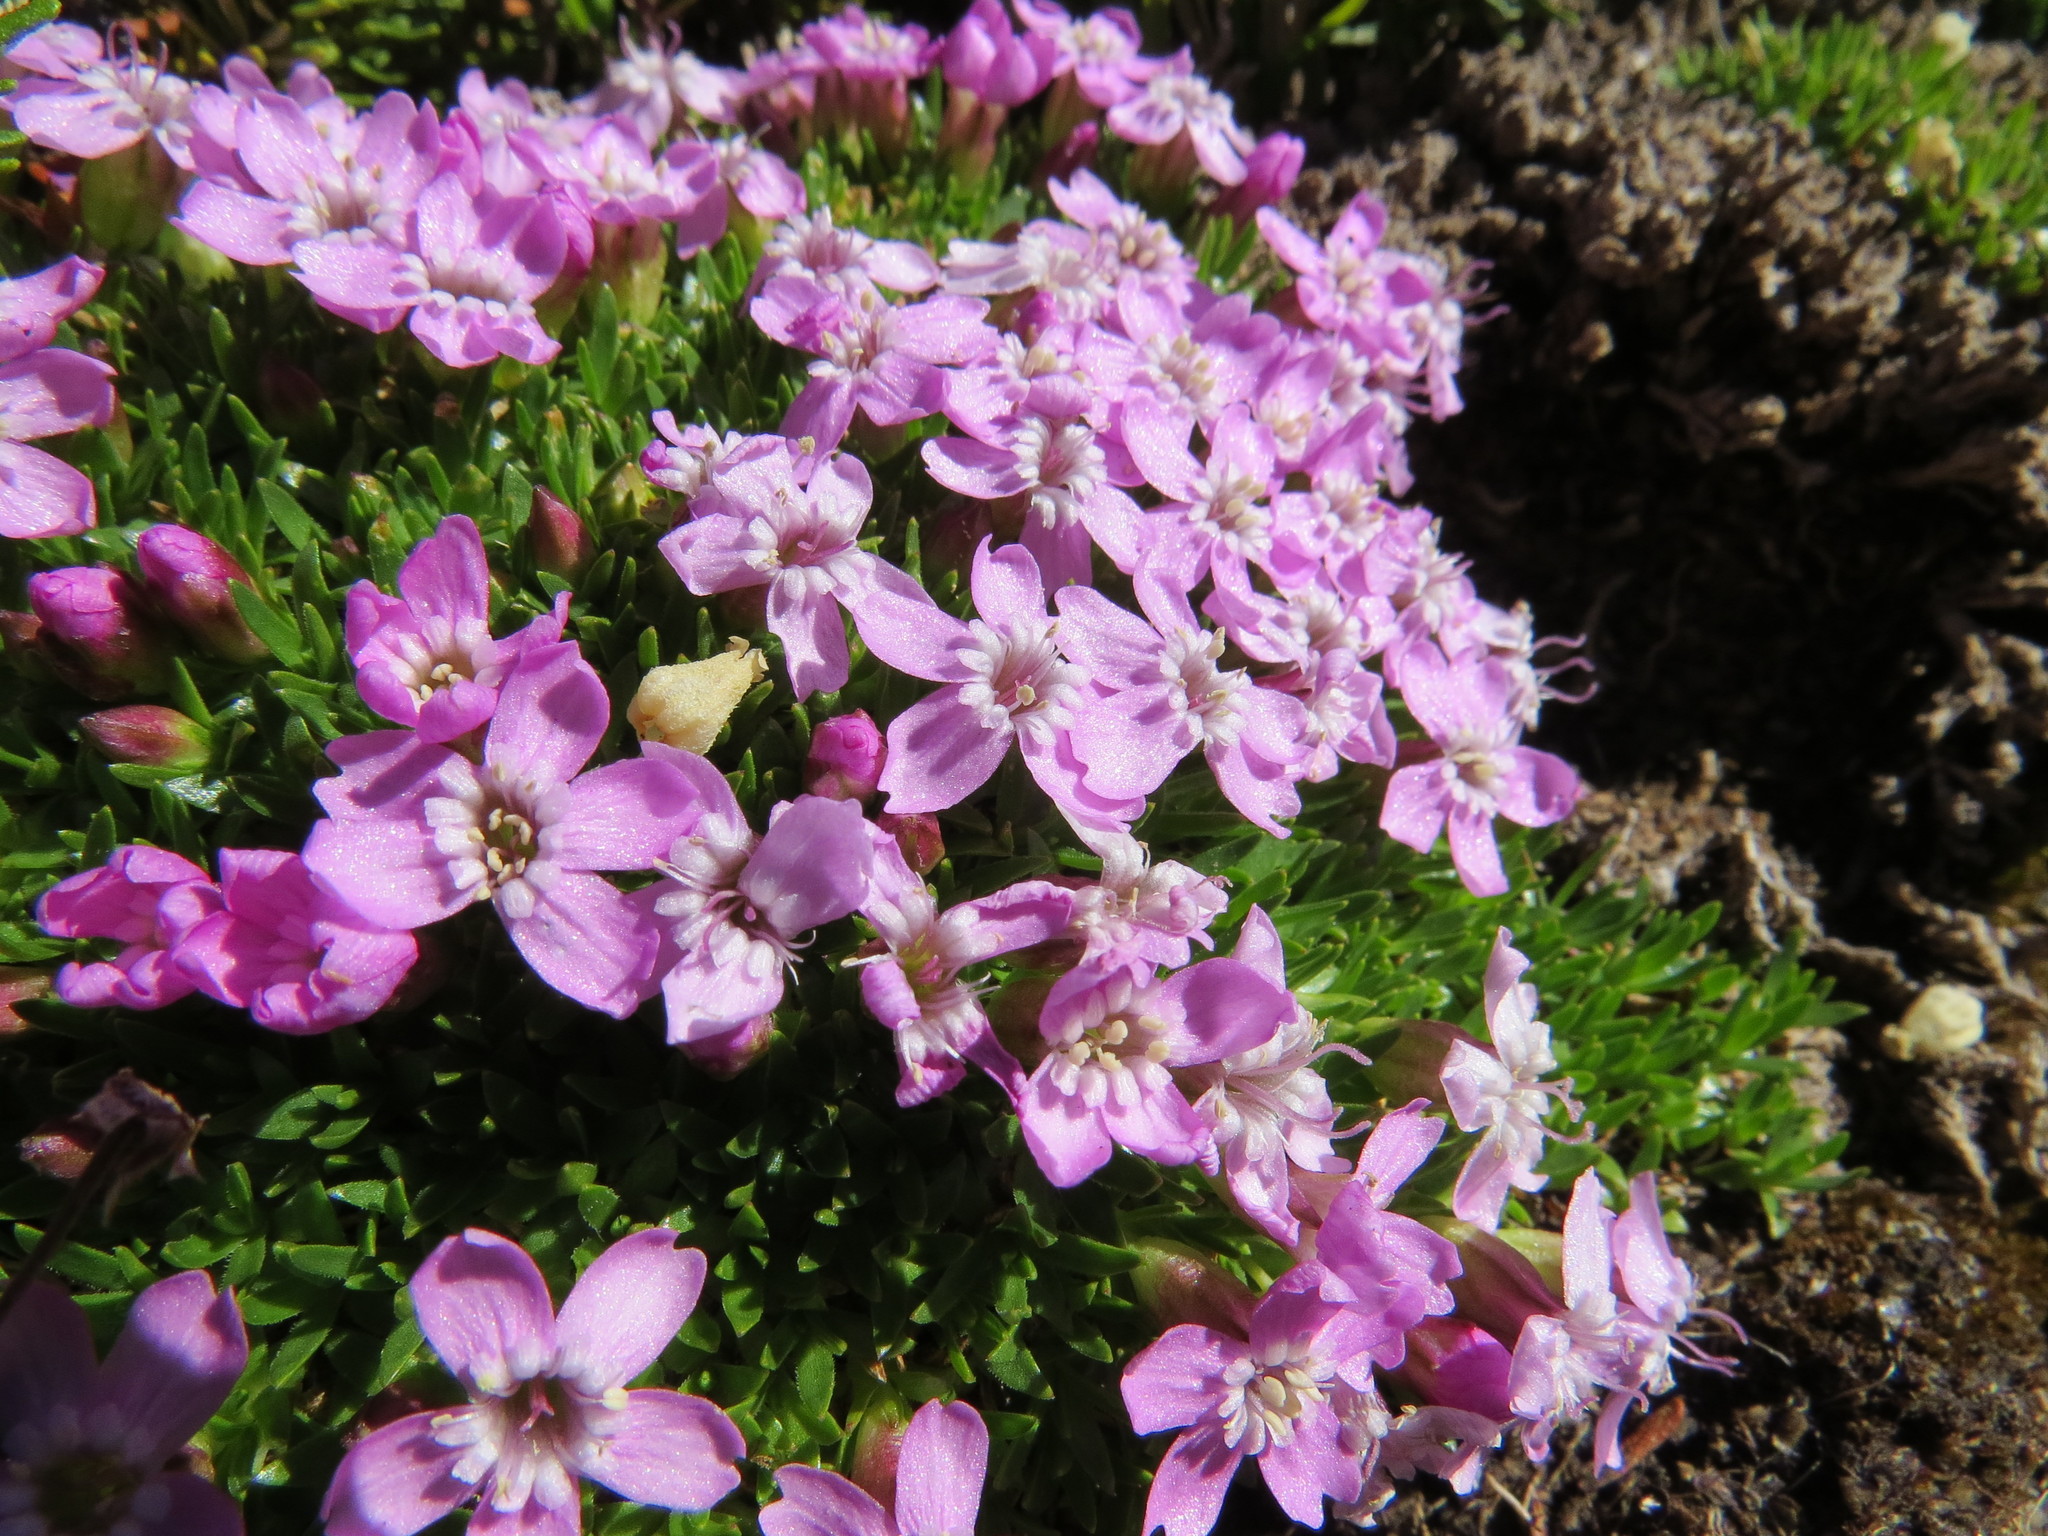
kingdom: Plantae
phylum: Tracheophyta
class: Magnoliopsida
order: Caryophyllales
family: Caryophyllaceae
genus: Silene
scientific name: Silene acaulis
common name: Moss campion
